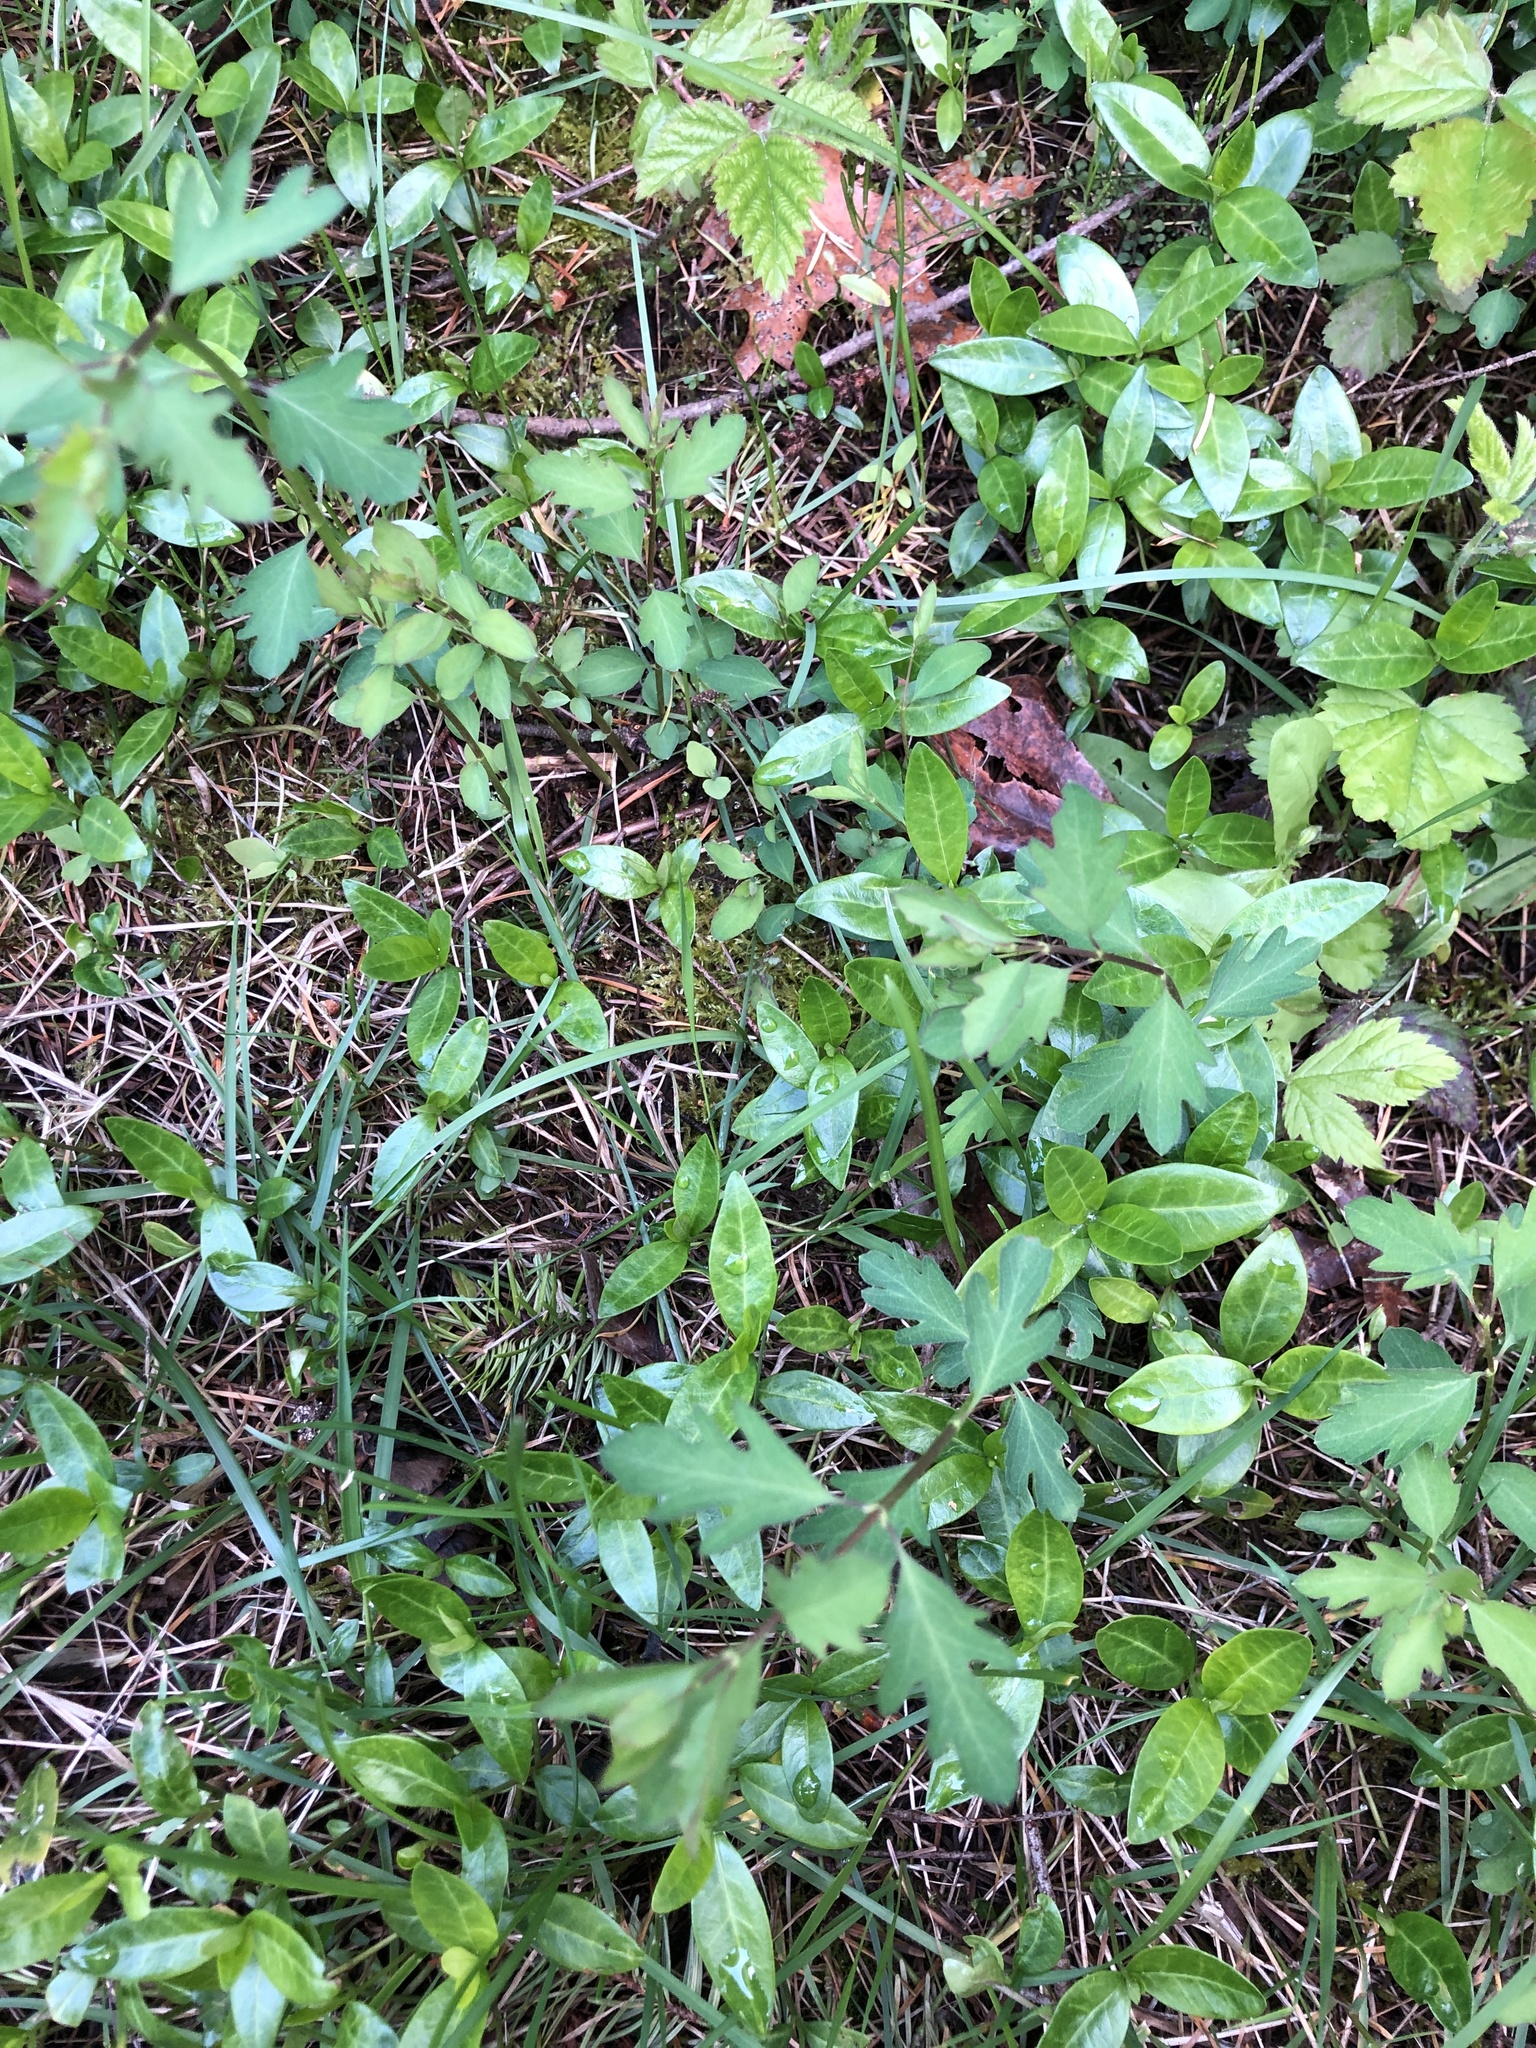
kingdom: Plantae
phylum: Tracheophyta
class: Magnoliopsida
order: Gentianales
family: Apocynaceae
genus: Vinca
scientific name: Vinca minor
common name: Lesser periwinkle
